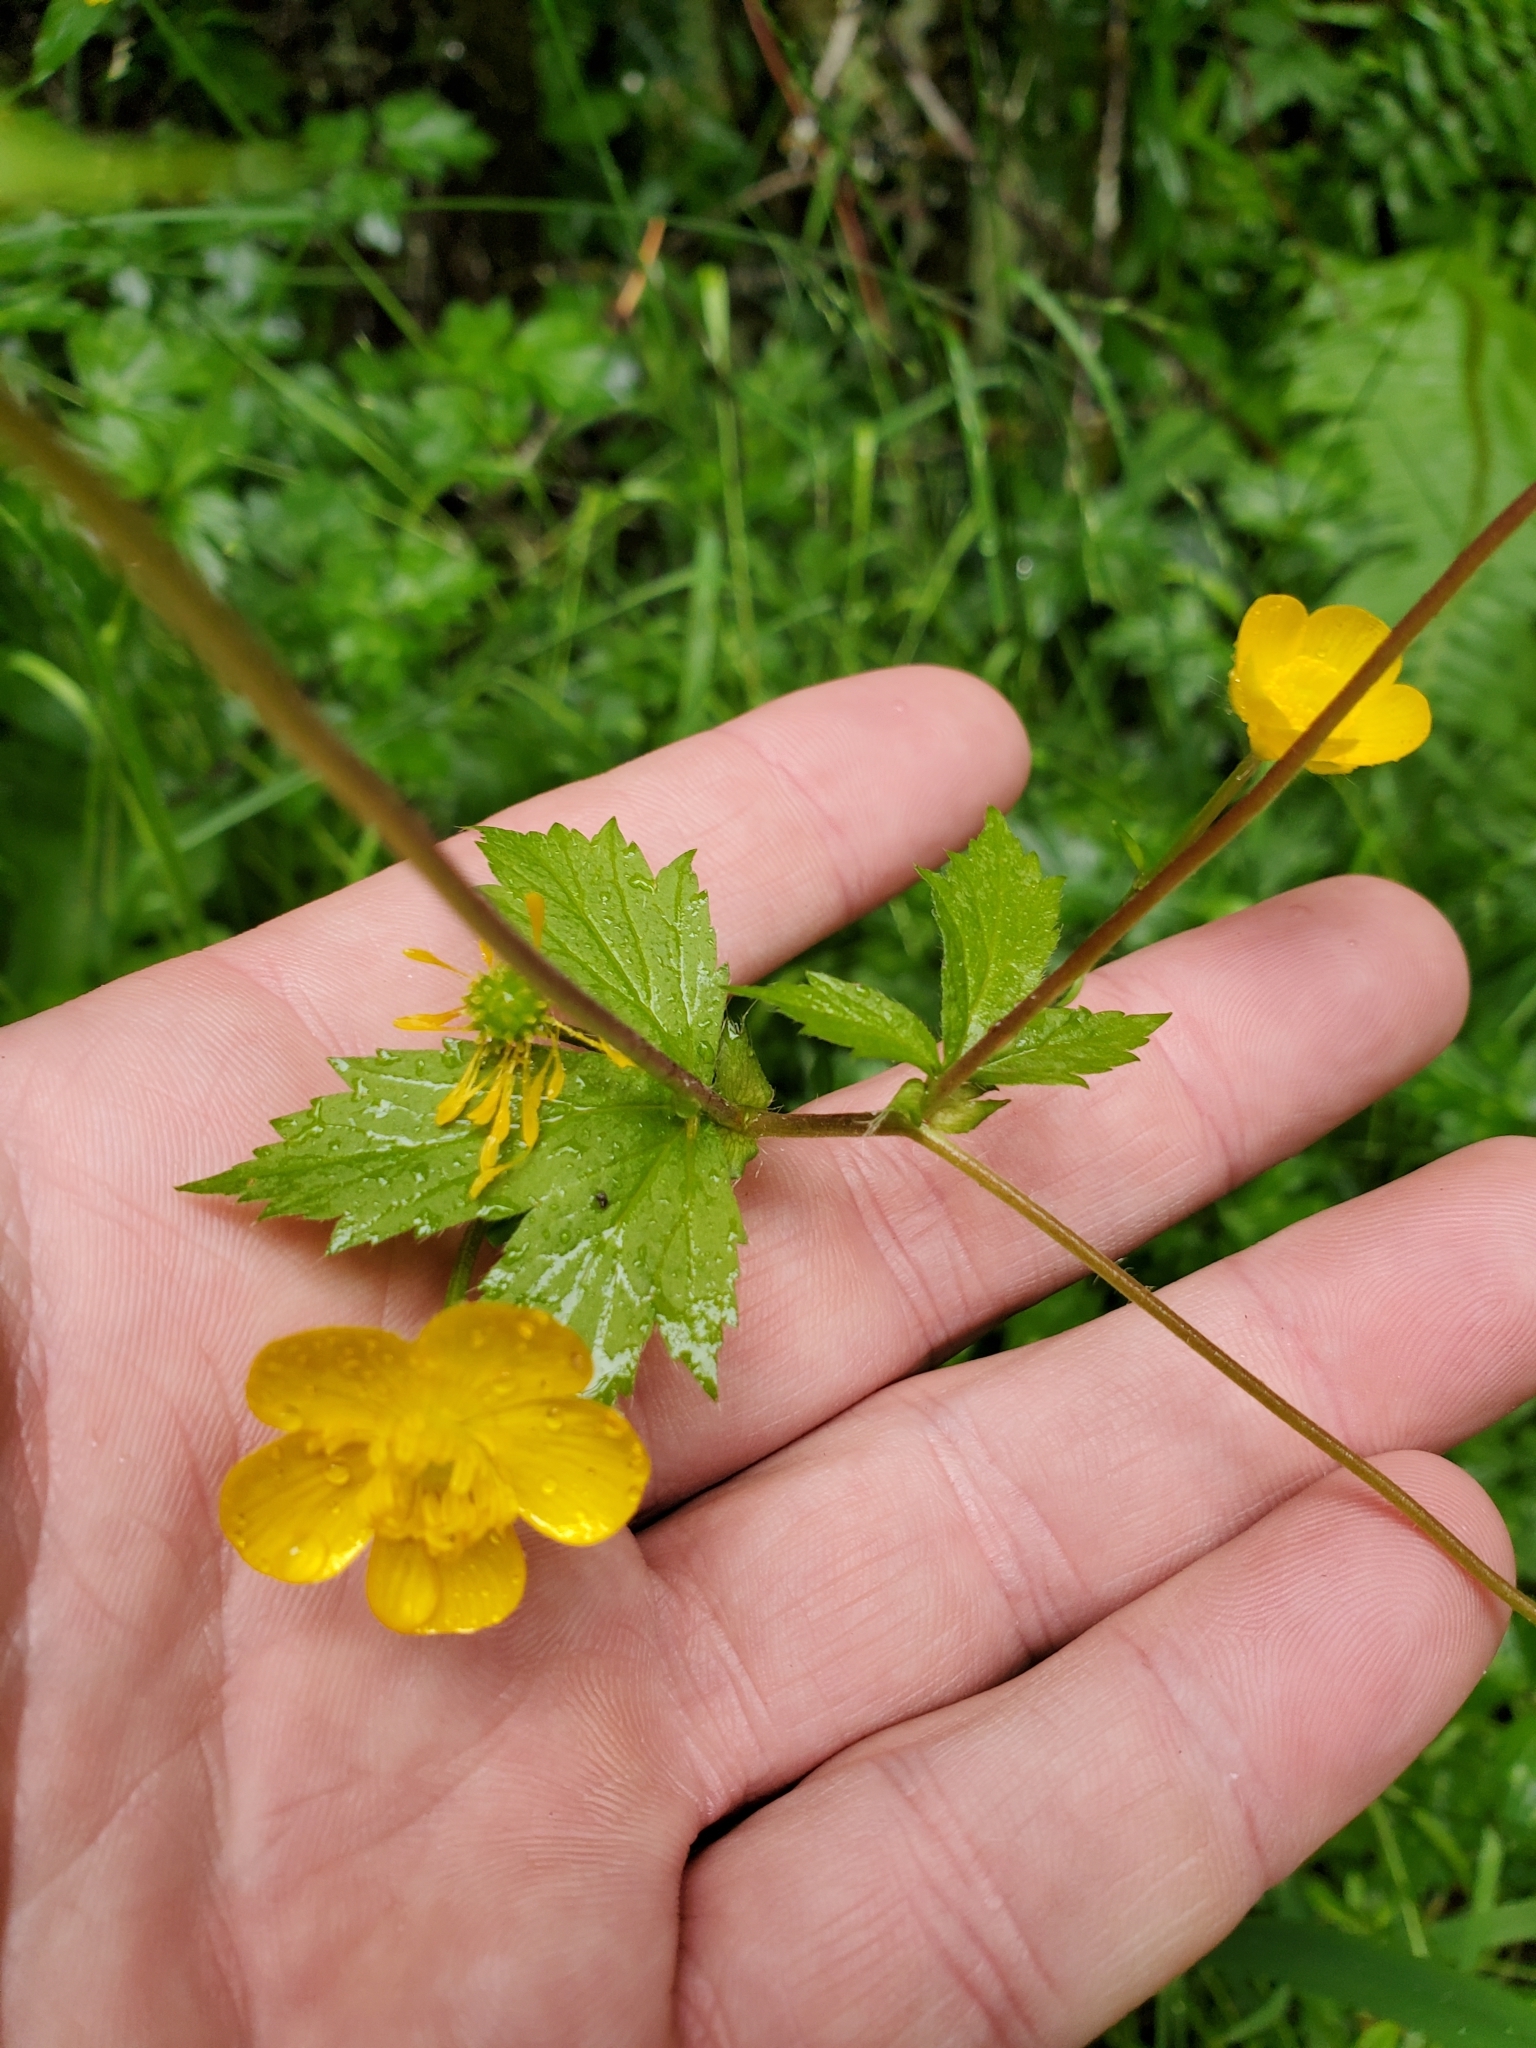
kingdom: Plantae
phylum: Tracheophyta
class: Magnoliopsida
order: Rosales
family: Rosaceae
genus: Geum
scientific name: Geum macrophyllum
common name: Large-leaved avens
